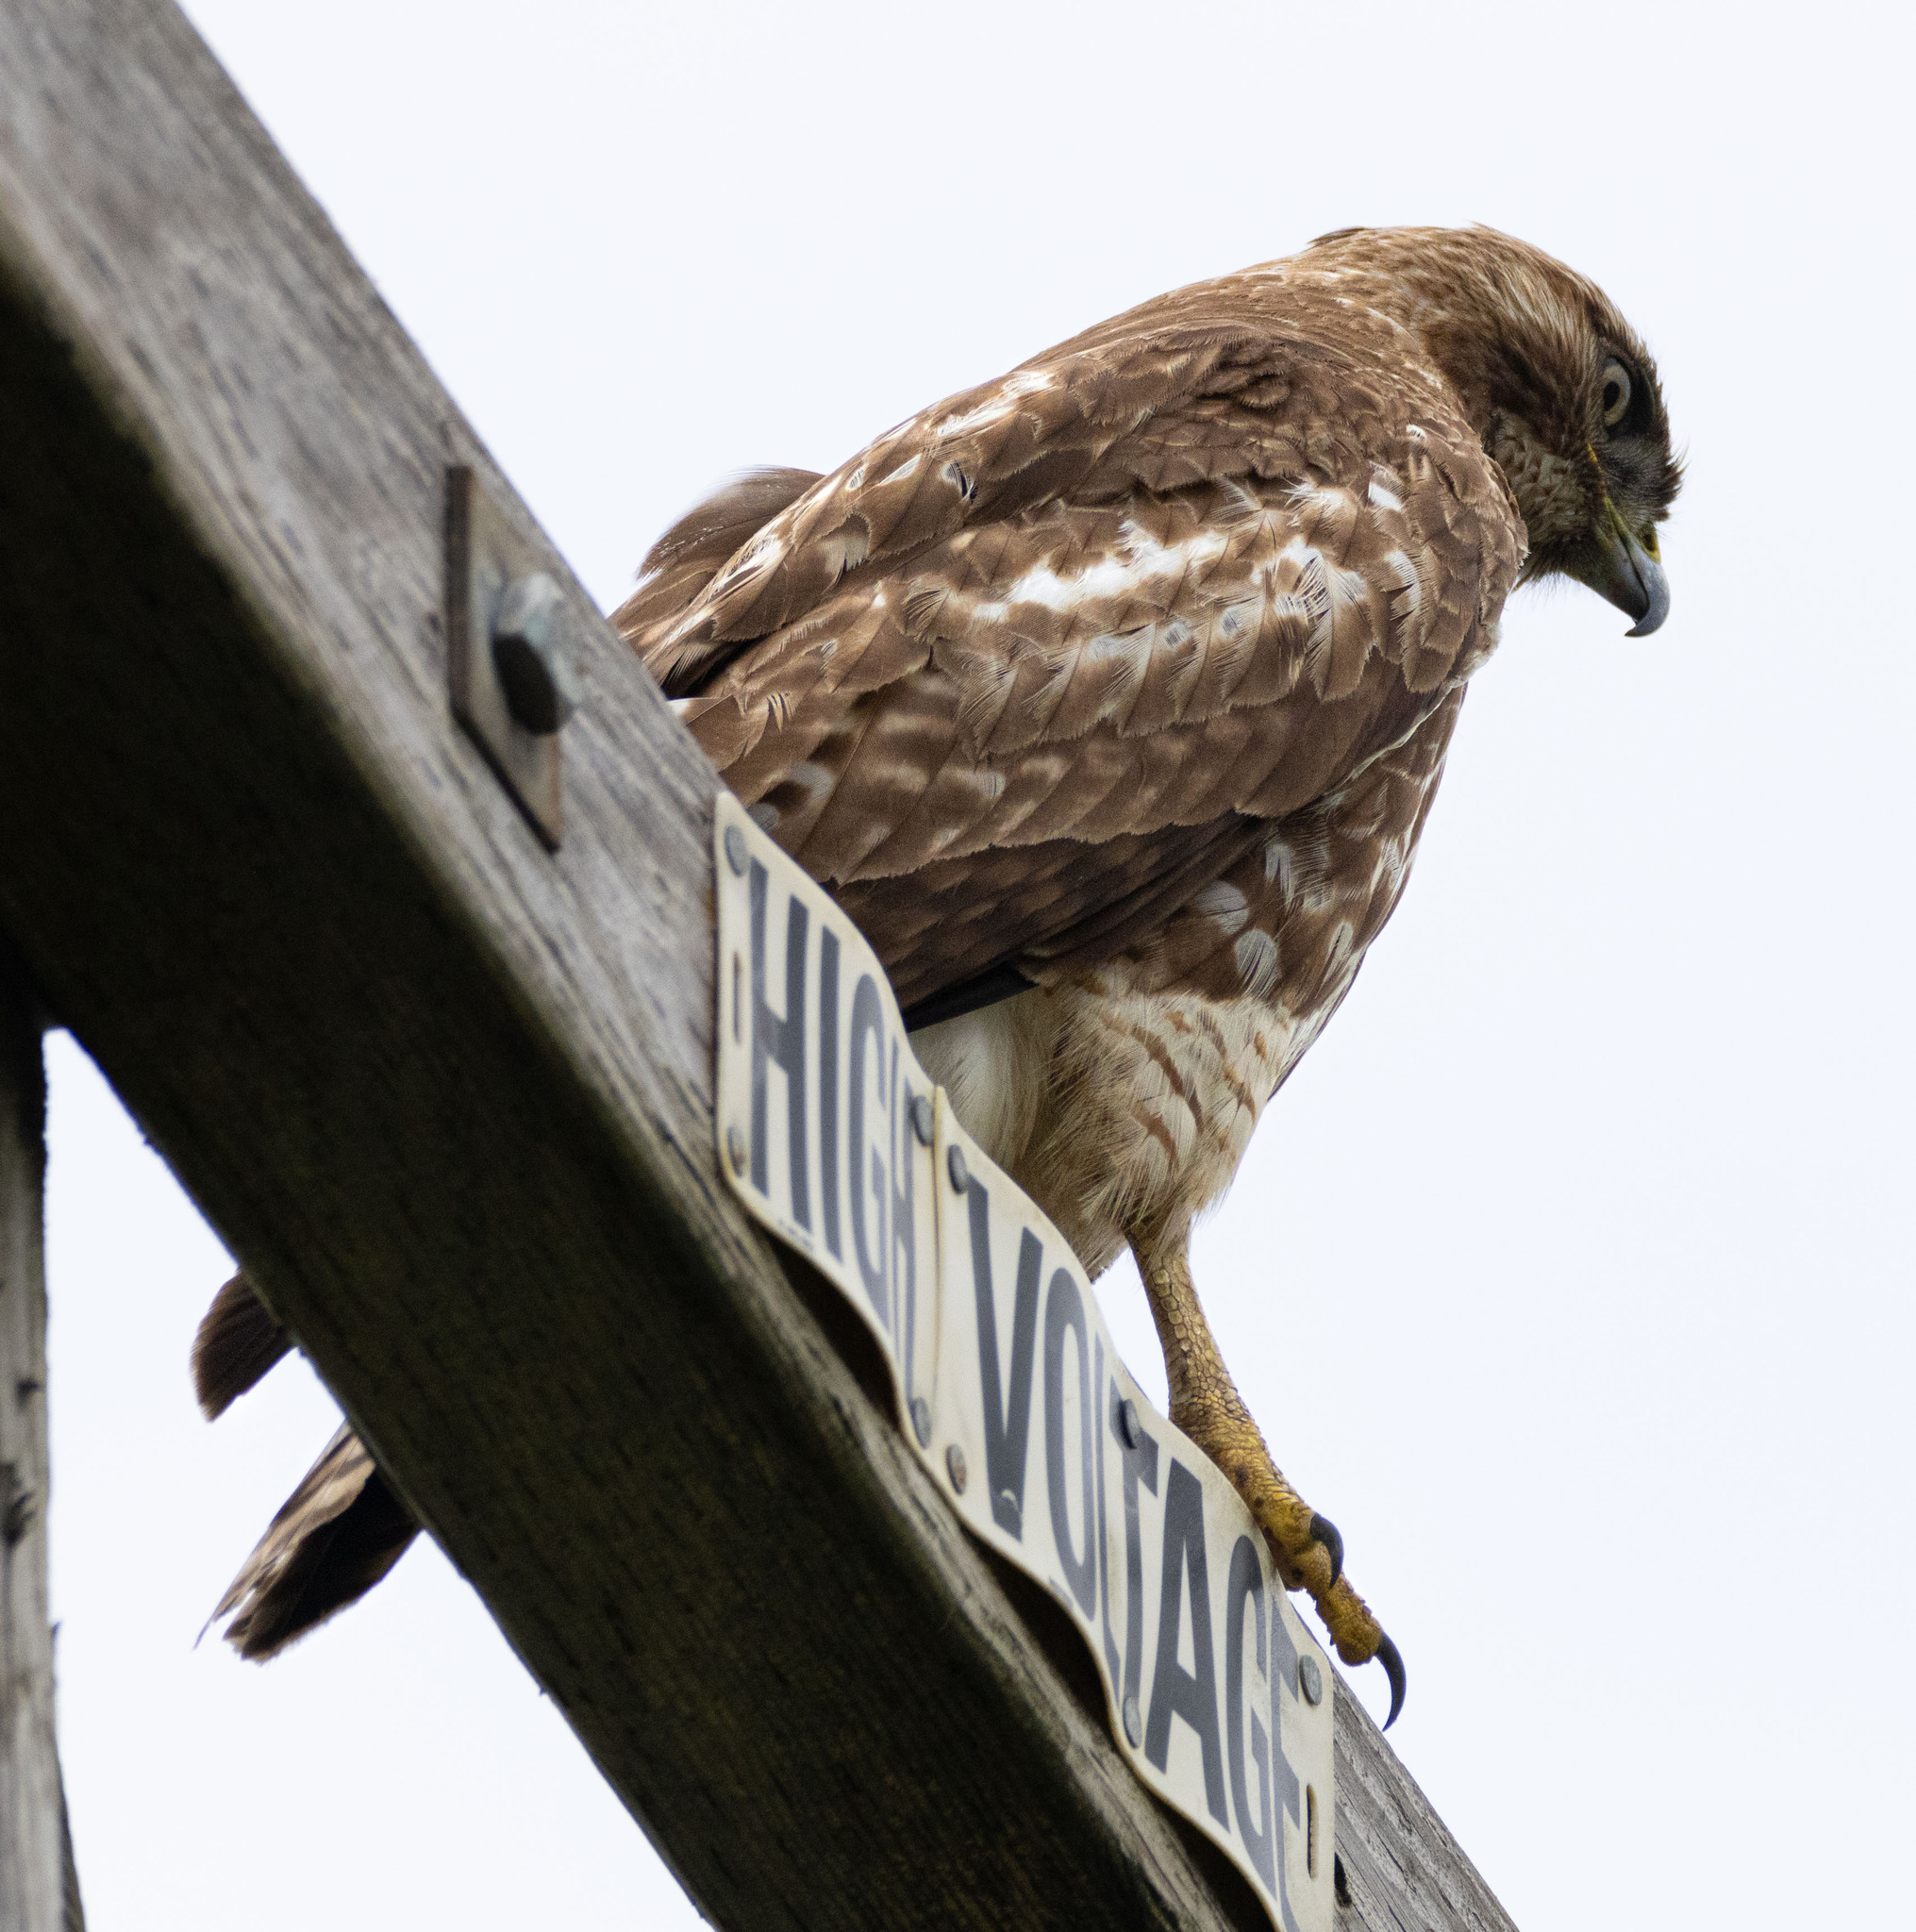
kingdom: Animalia
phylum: Chordata
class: Aves
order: Accipitriformes
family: Accipitridae
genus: Buteo
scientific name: Buteo jamaicensis
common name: Red-tailed hawk
